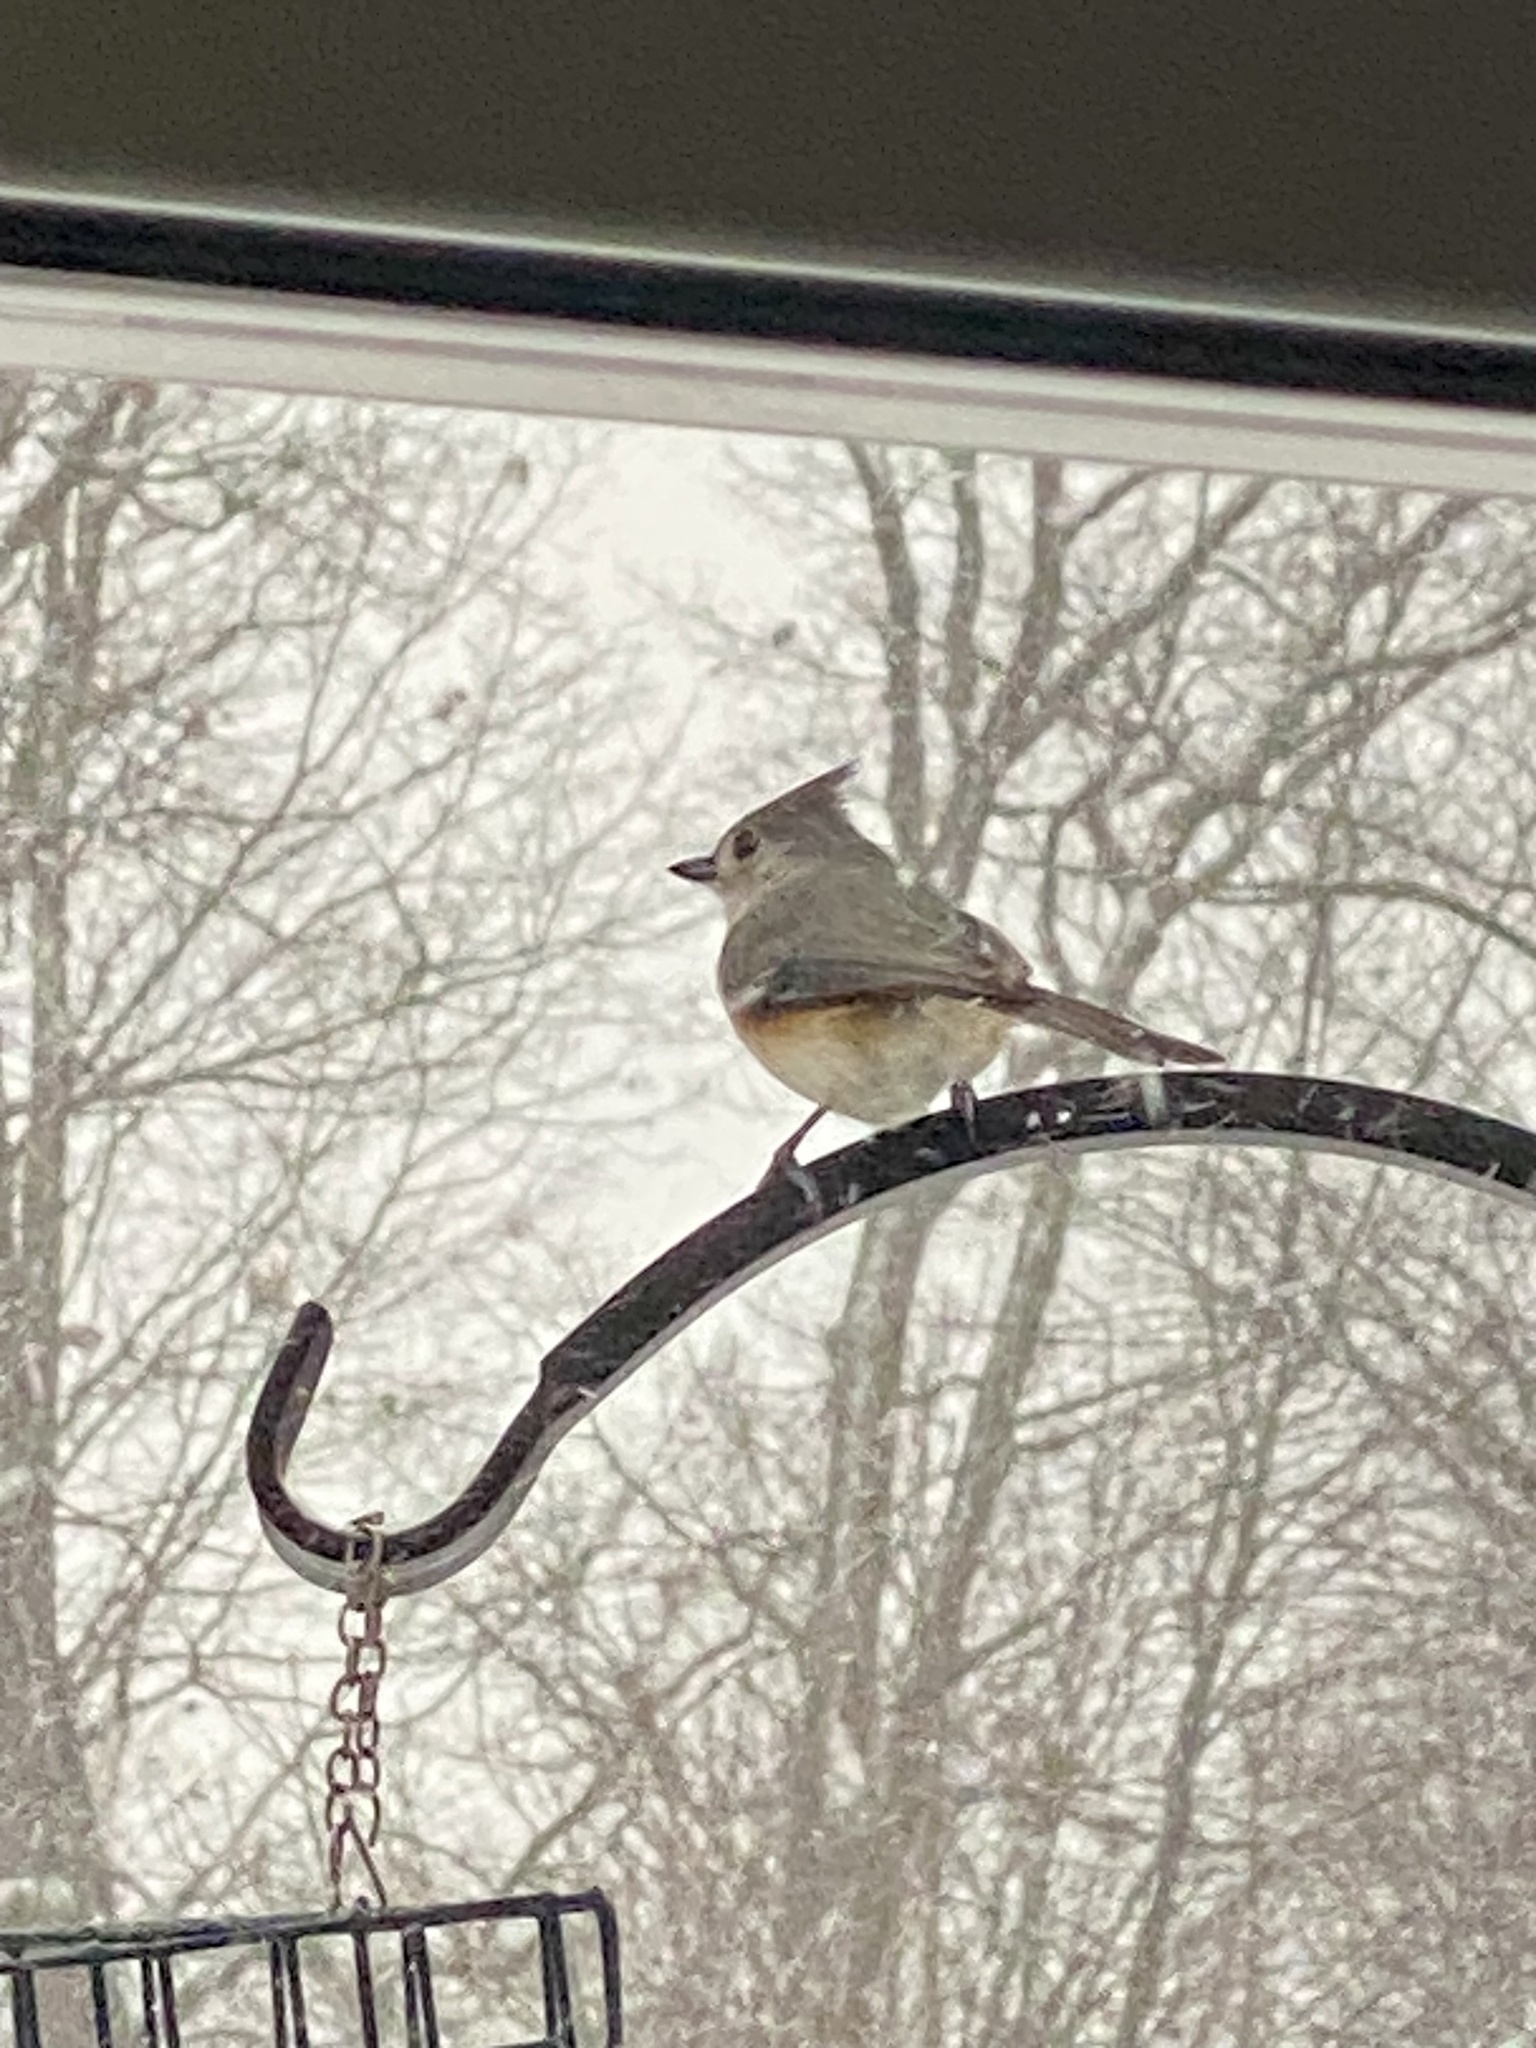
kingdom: Animalia
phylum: Chordata
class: Aves
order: Passeriformes
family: Paridae
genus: Baeolophus
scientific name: Baeolophus bicolor
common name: Tufted titmouse
